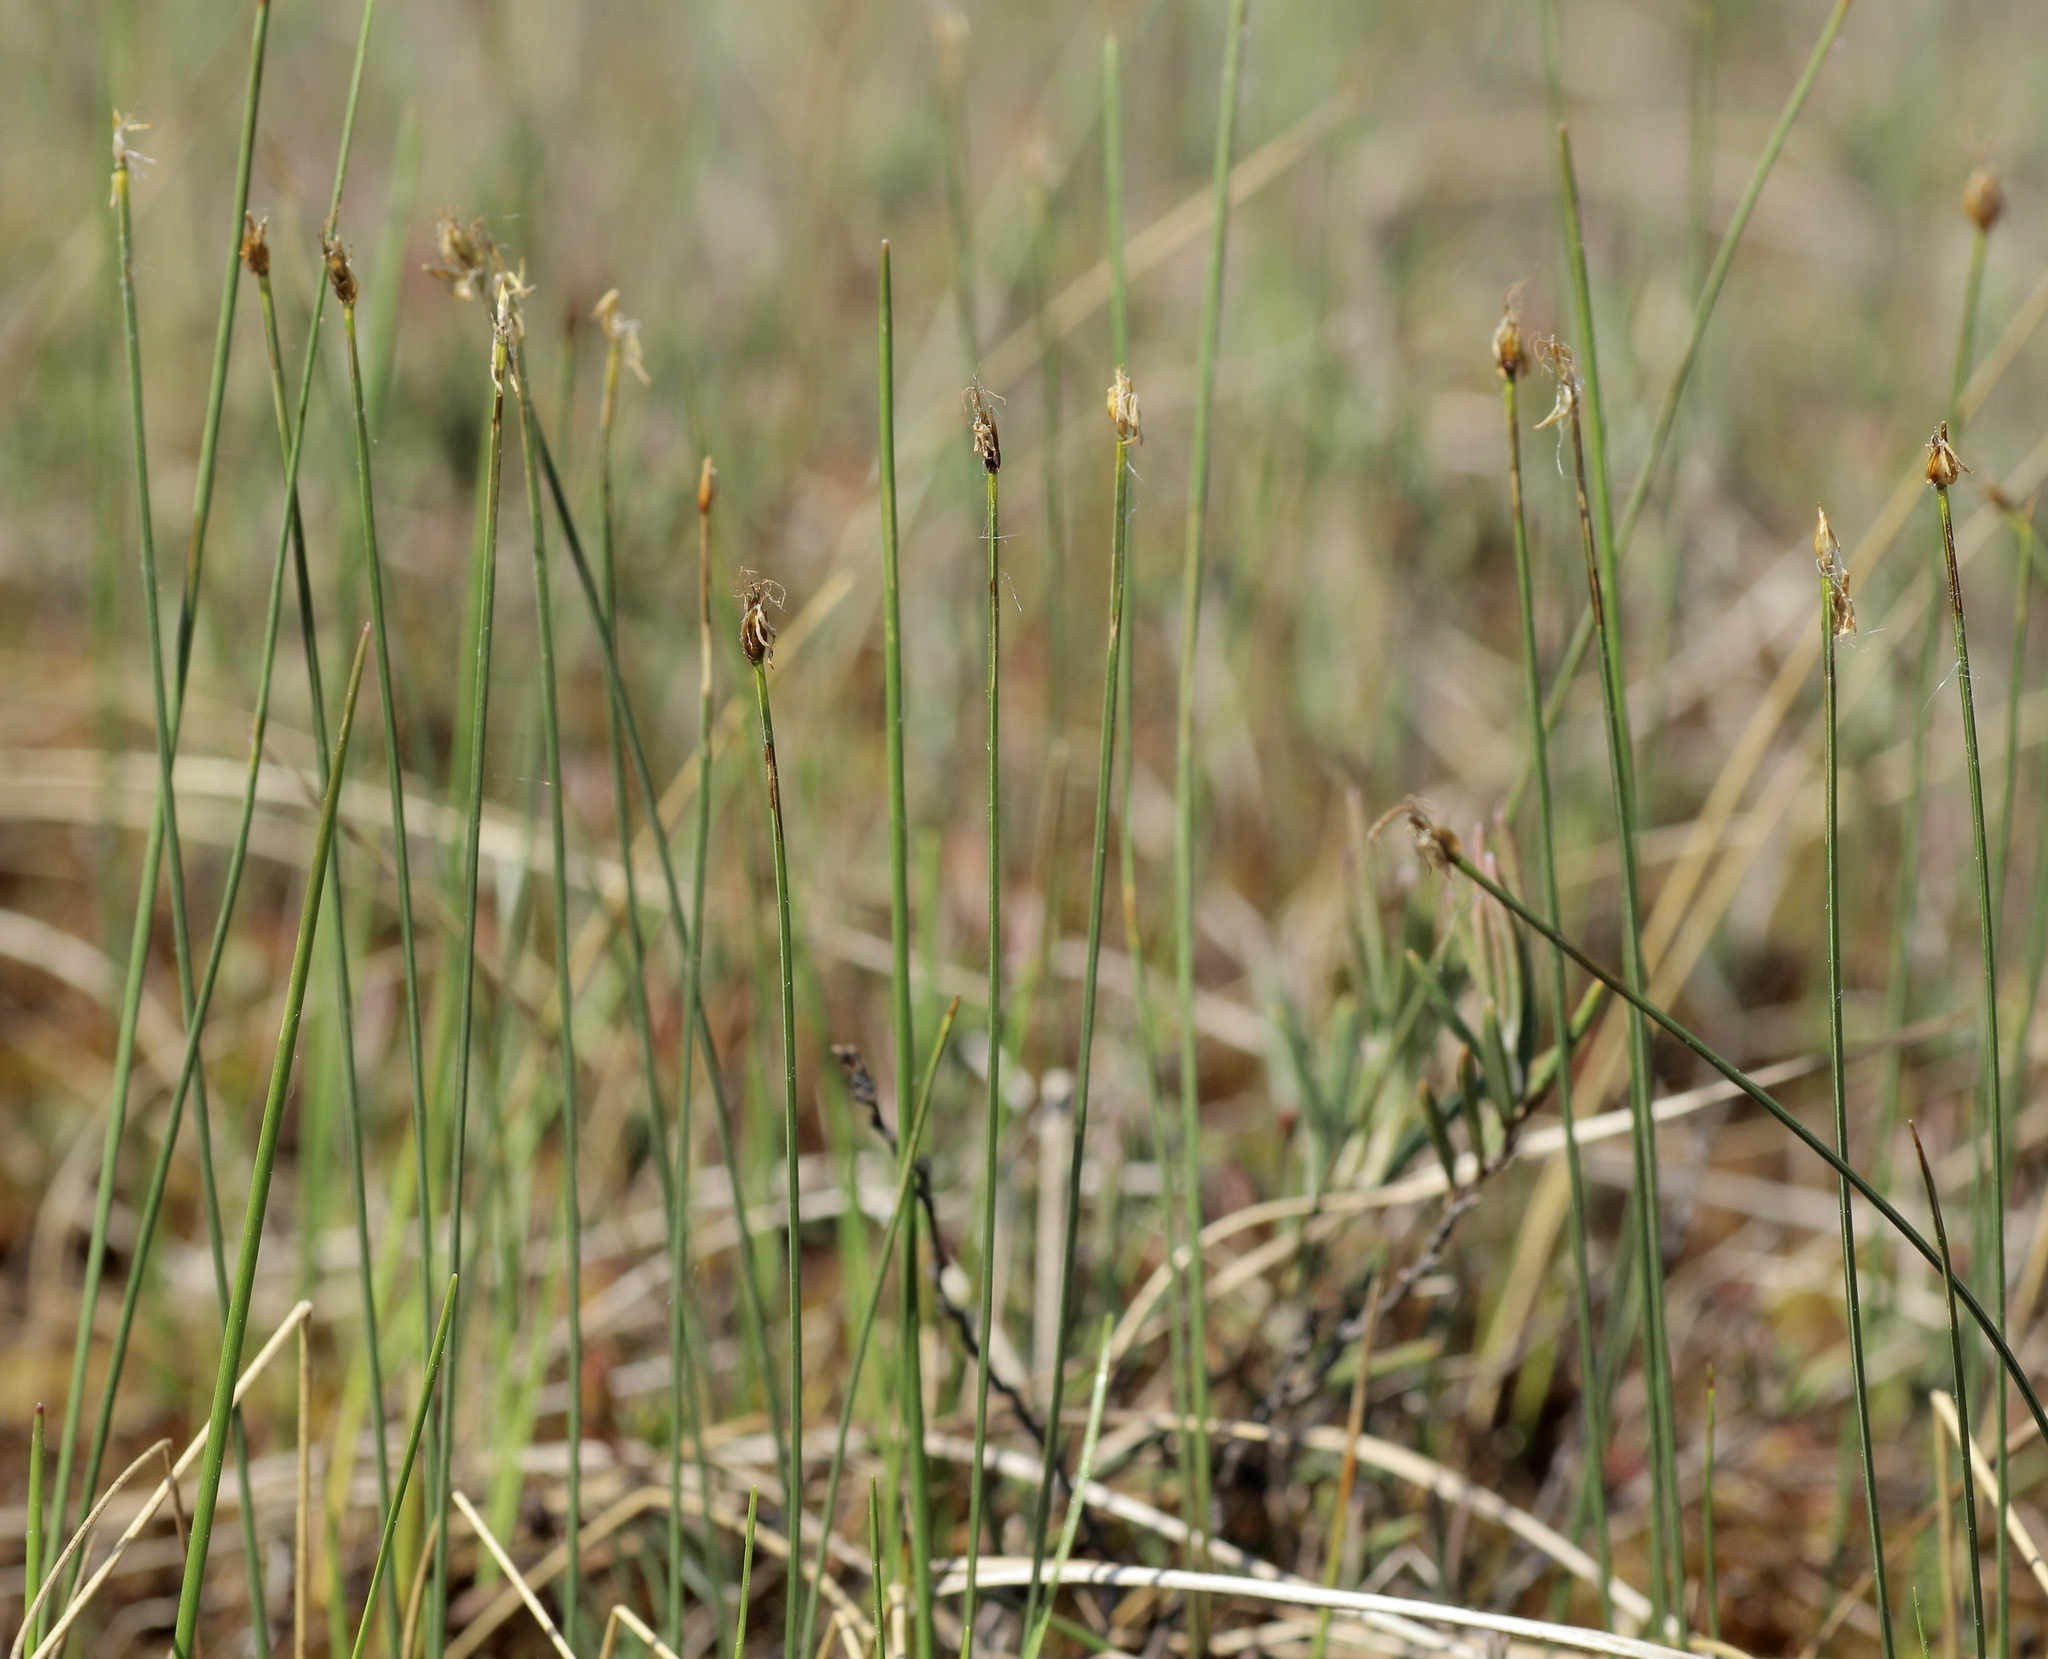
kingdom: Plantae
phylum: Tracheophyta
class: Liliopsida
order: Poales
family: Cyperaceae
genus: Trichophorum
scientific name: Trichophorum cespitosum
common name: Cespitose bulrush
